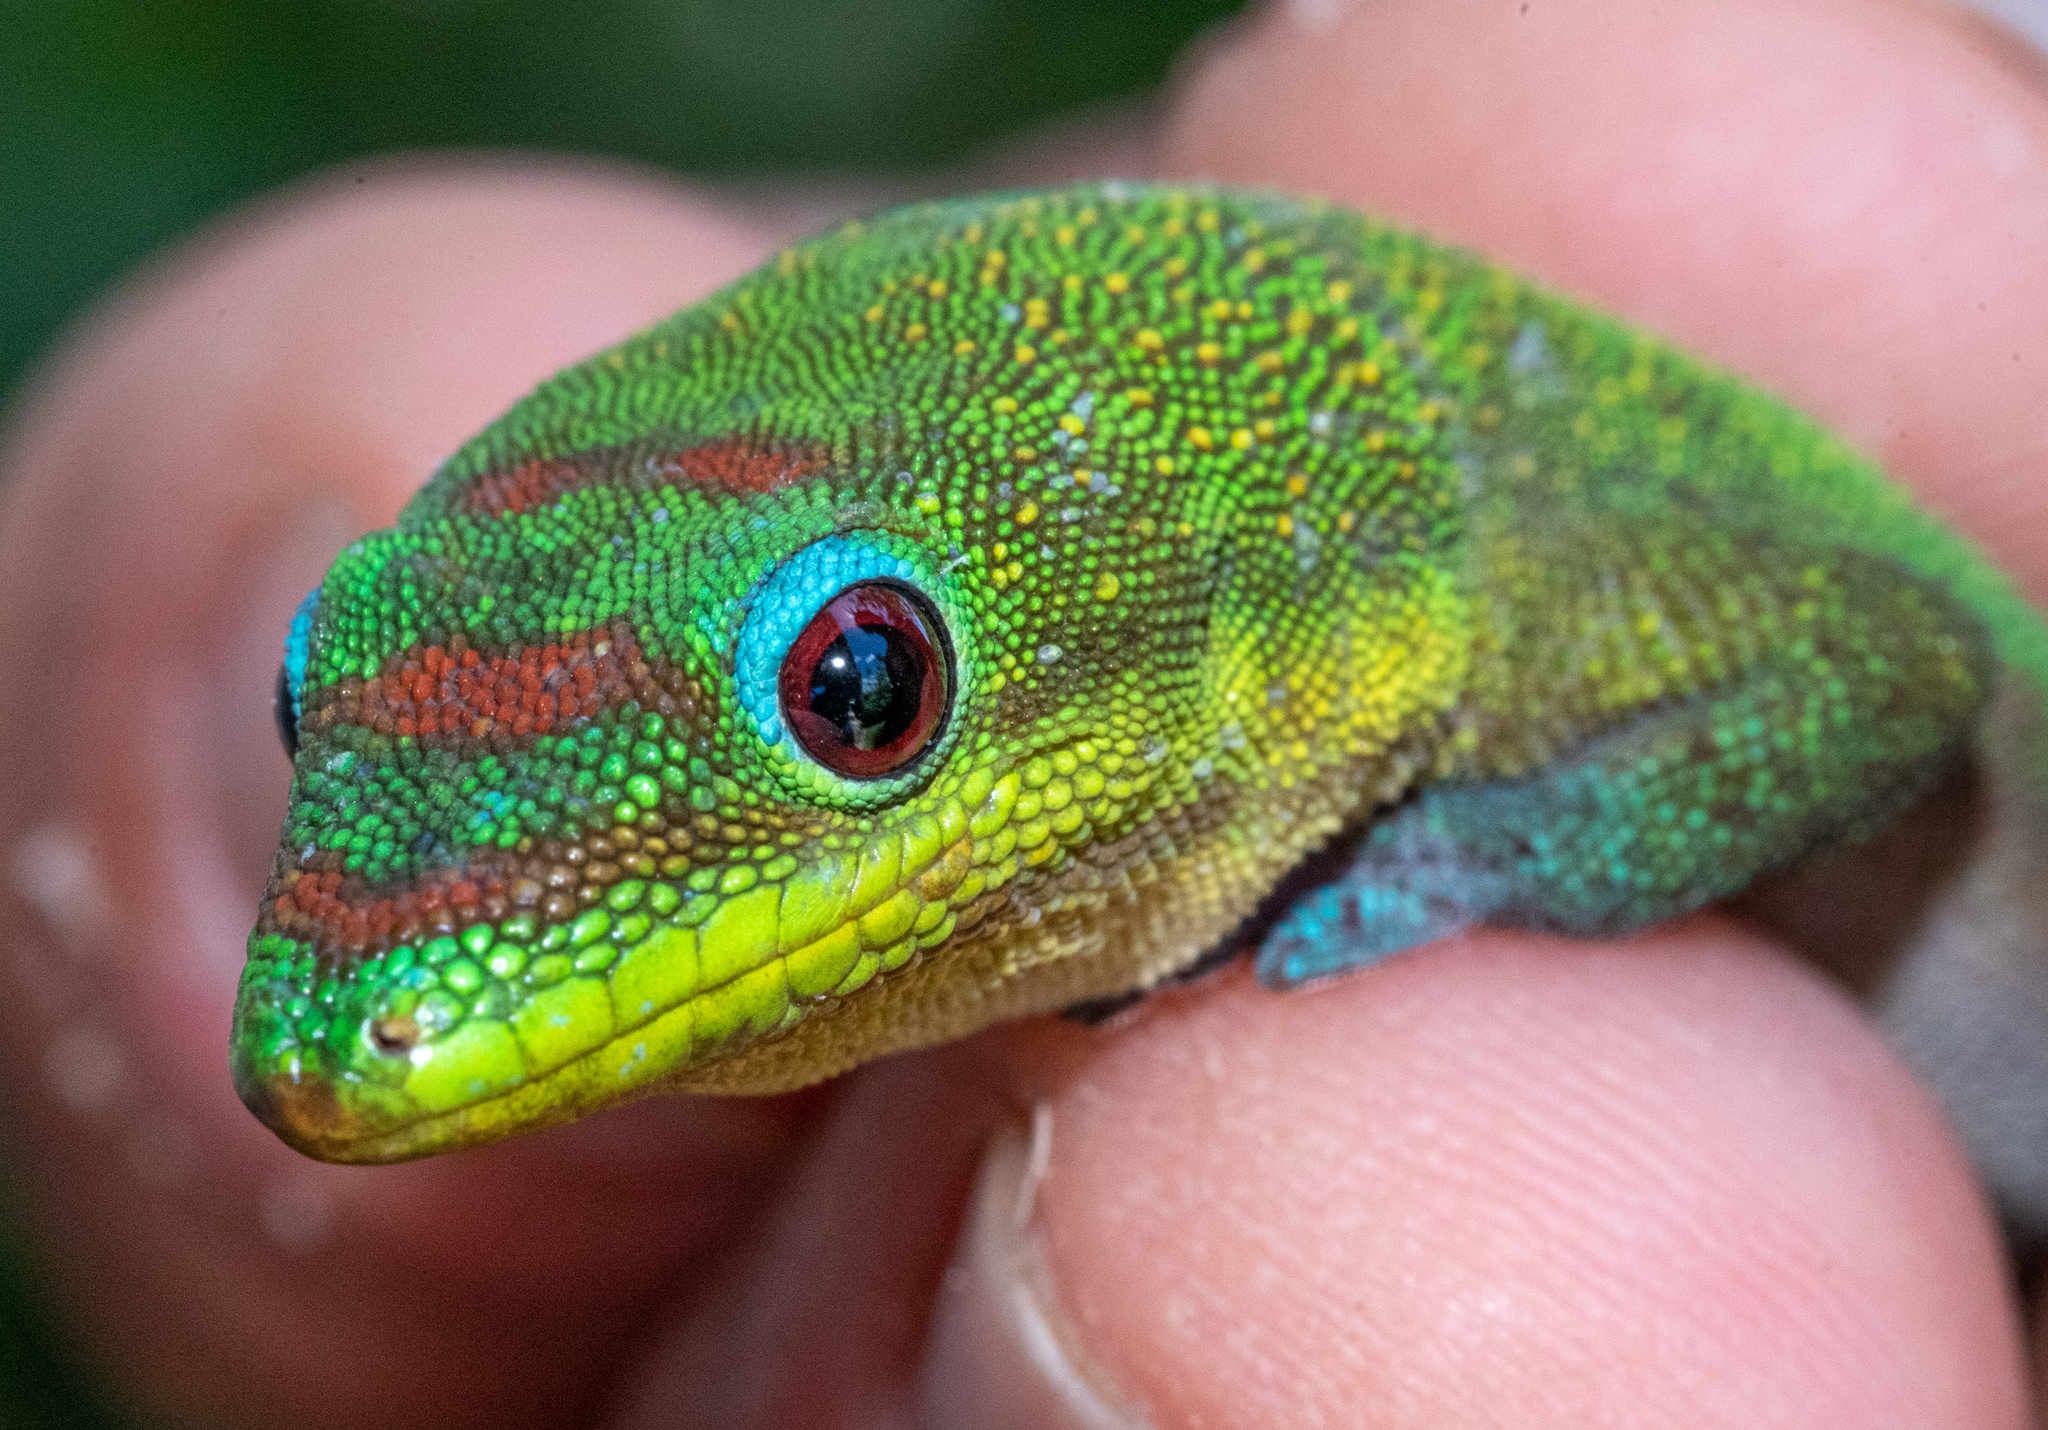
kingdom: Animalia
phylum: Chordata
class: Squamata
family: Gekkonidae
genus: Phelsuma
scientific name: Phelsuma laticauda
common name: Gold dust day gecko
